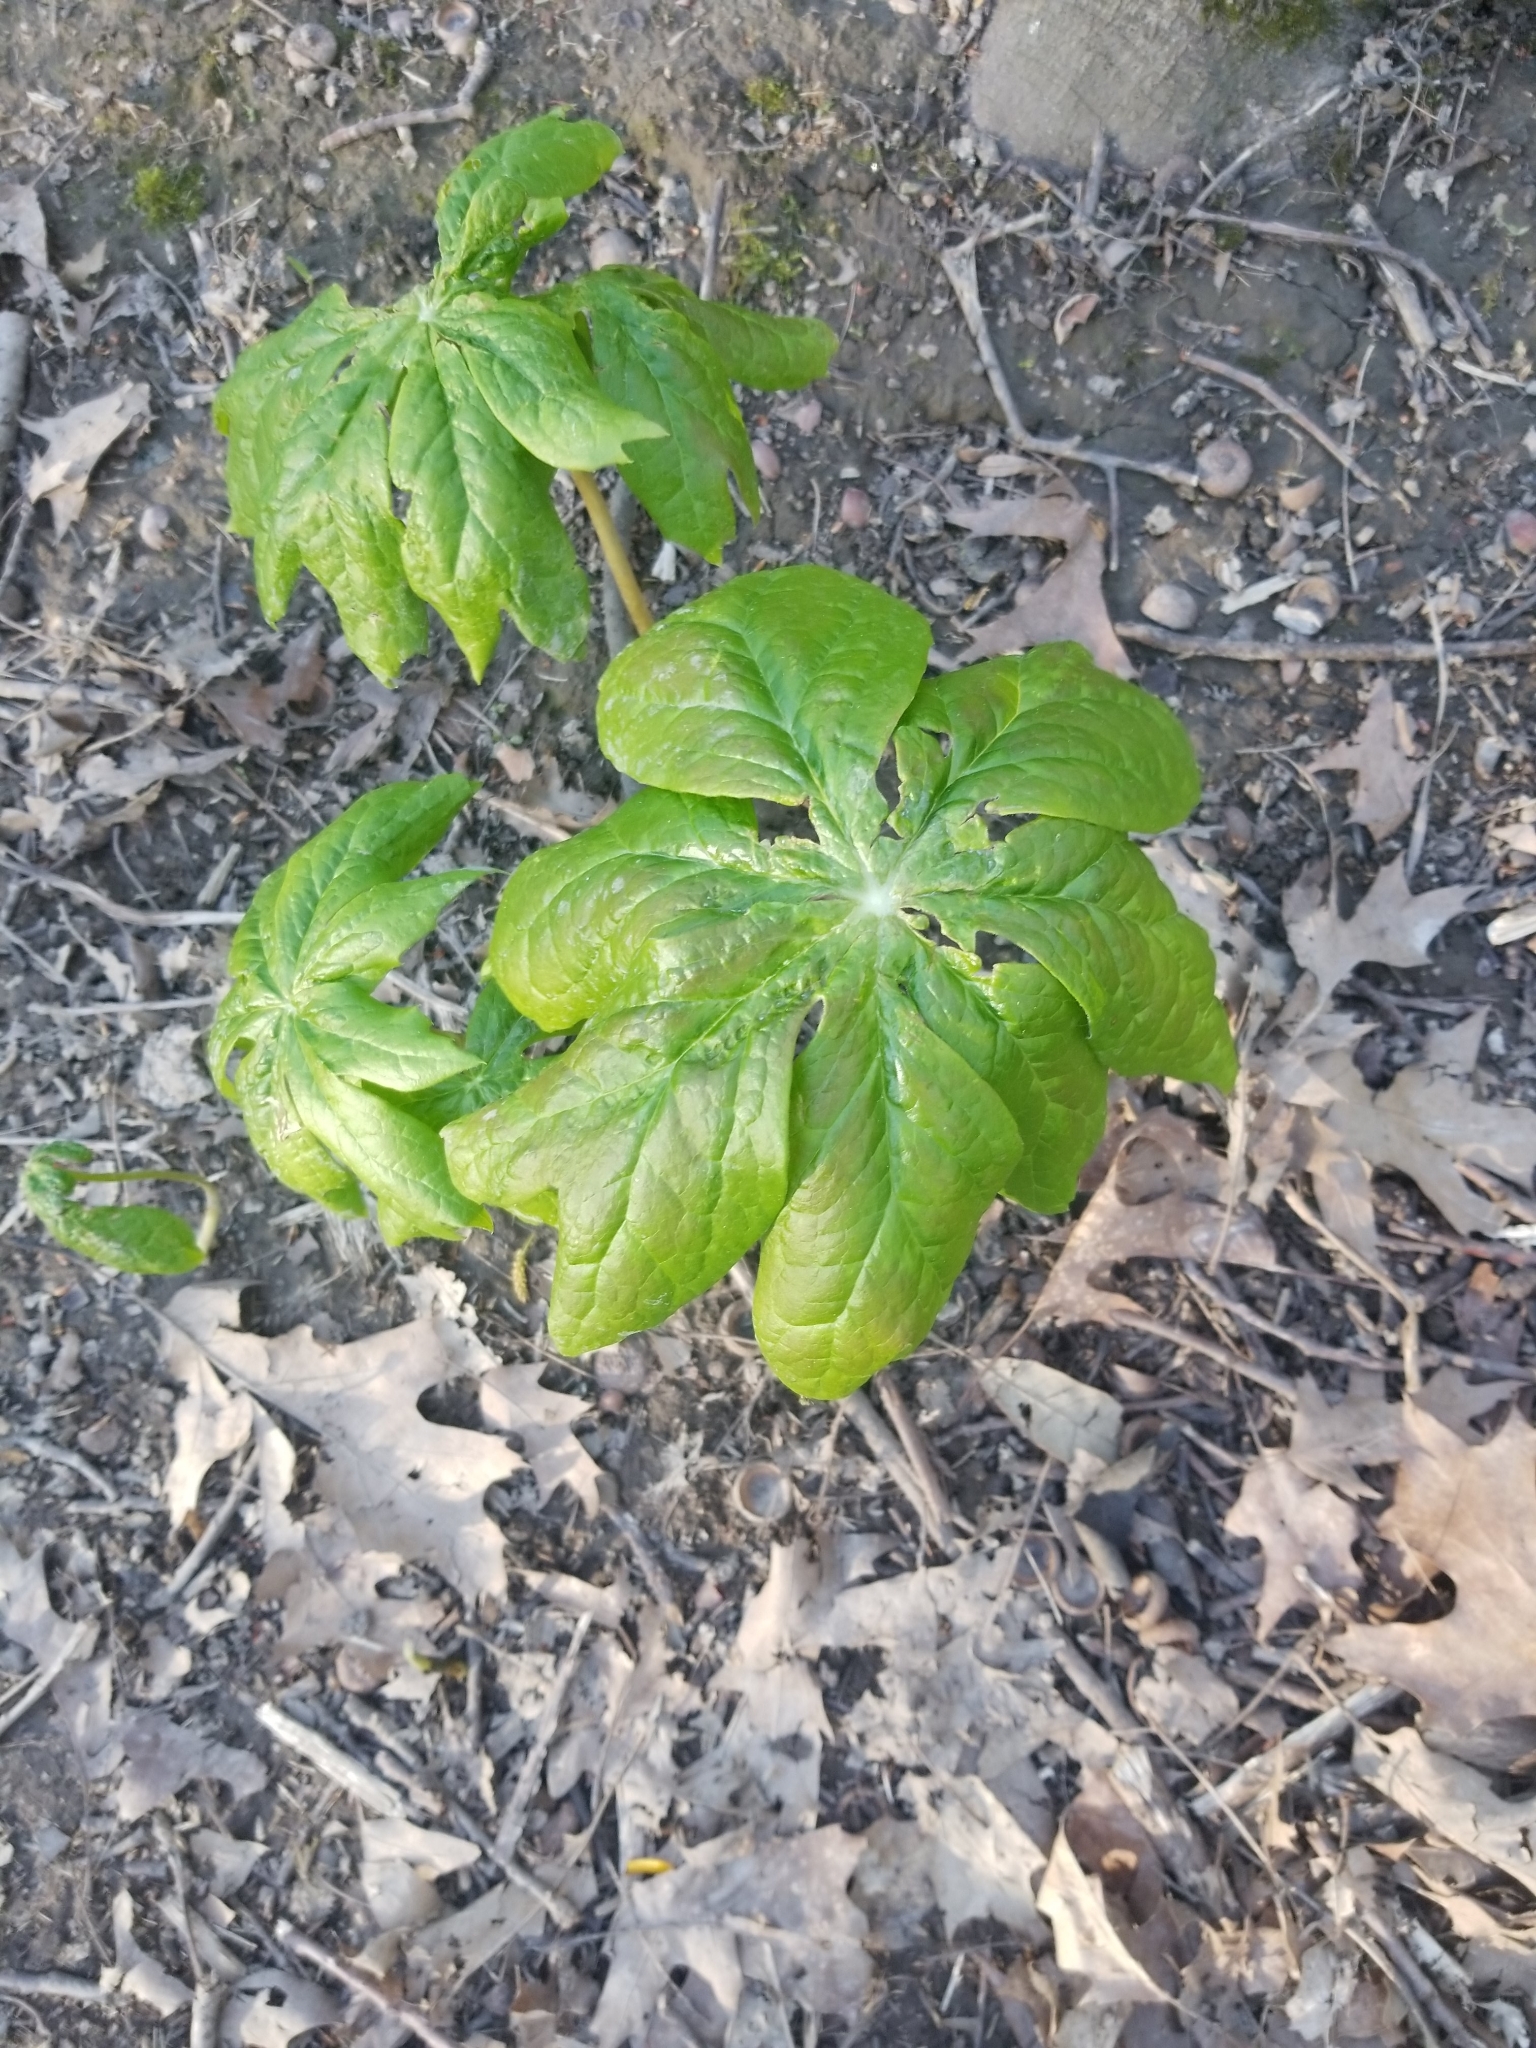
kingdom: Plantae
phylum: Tracheophyta
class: Magnoliopsida
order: Ranunculales
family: Berberidaceae
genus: Podophyllum
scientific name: Podophyllum peltatum
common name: Wild mandrake
